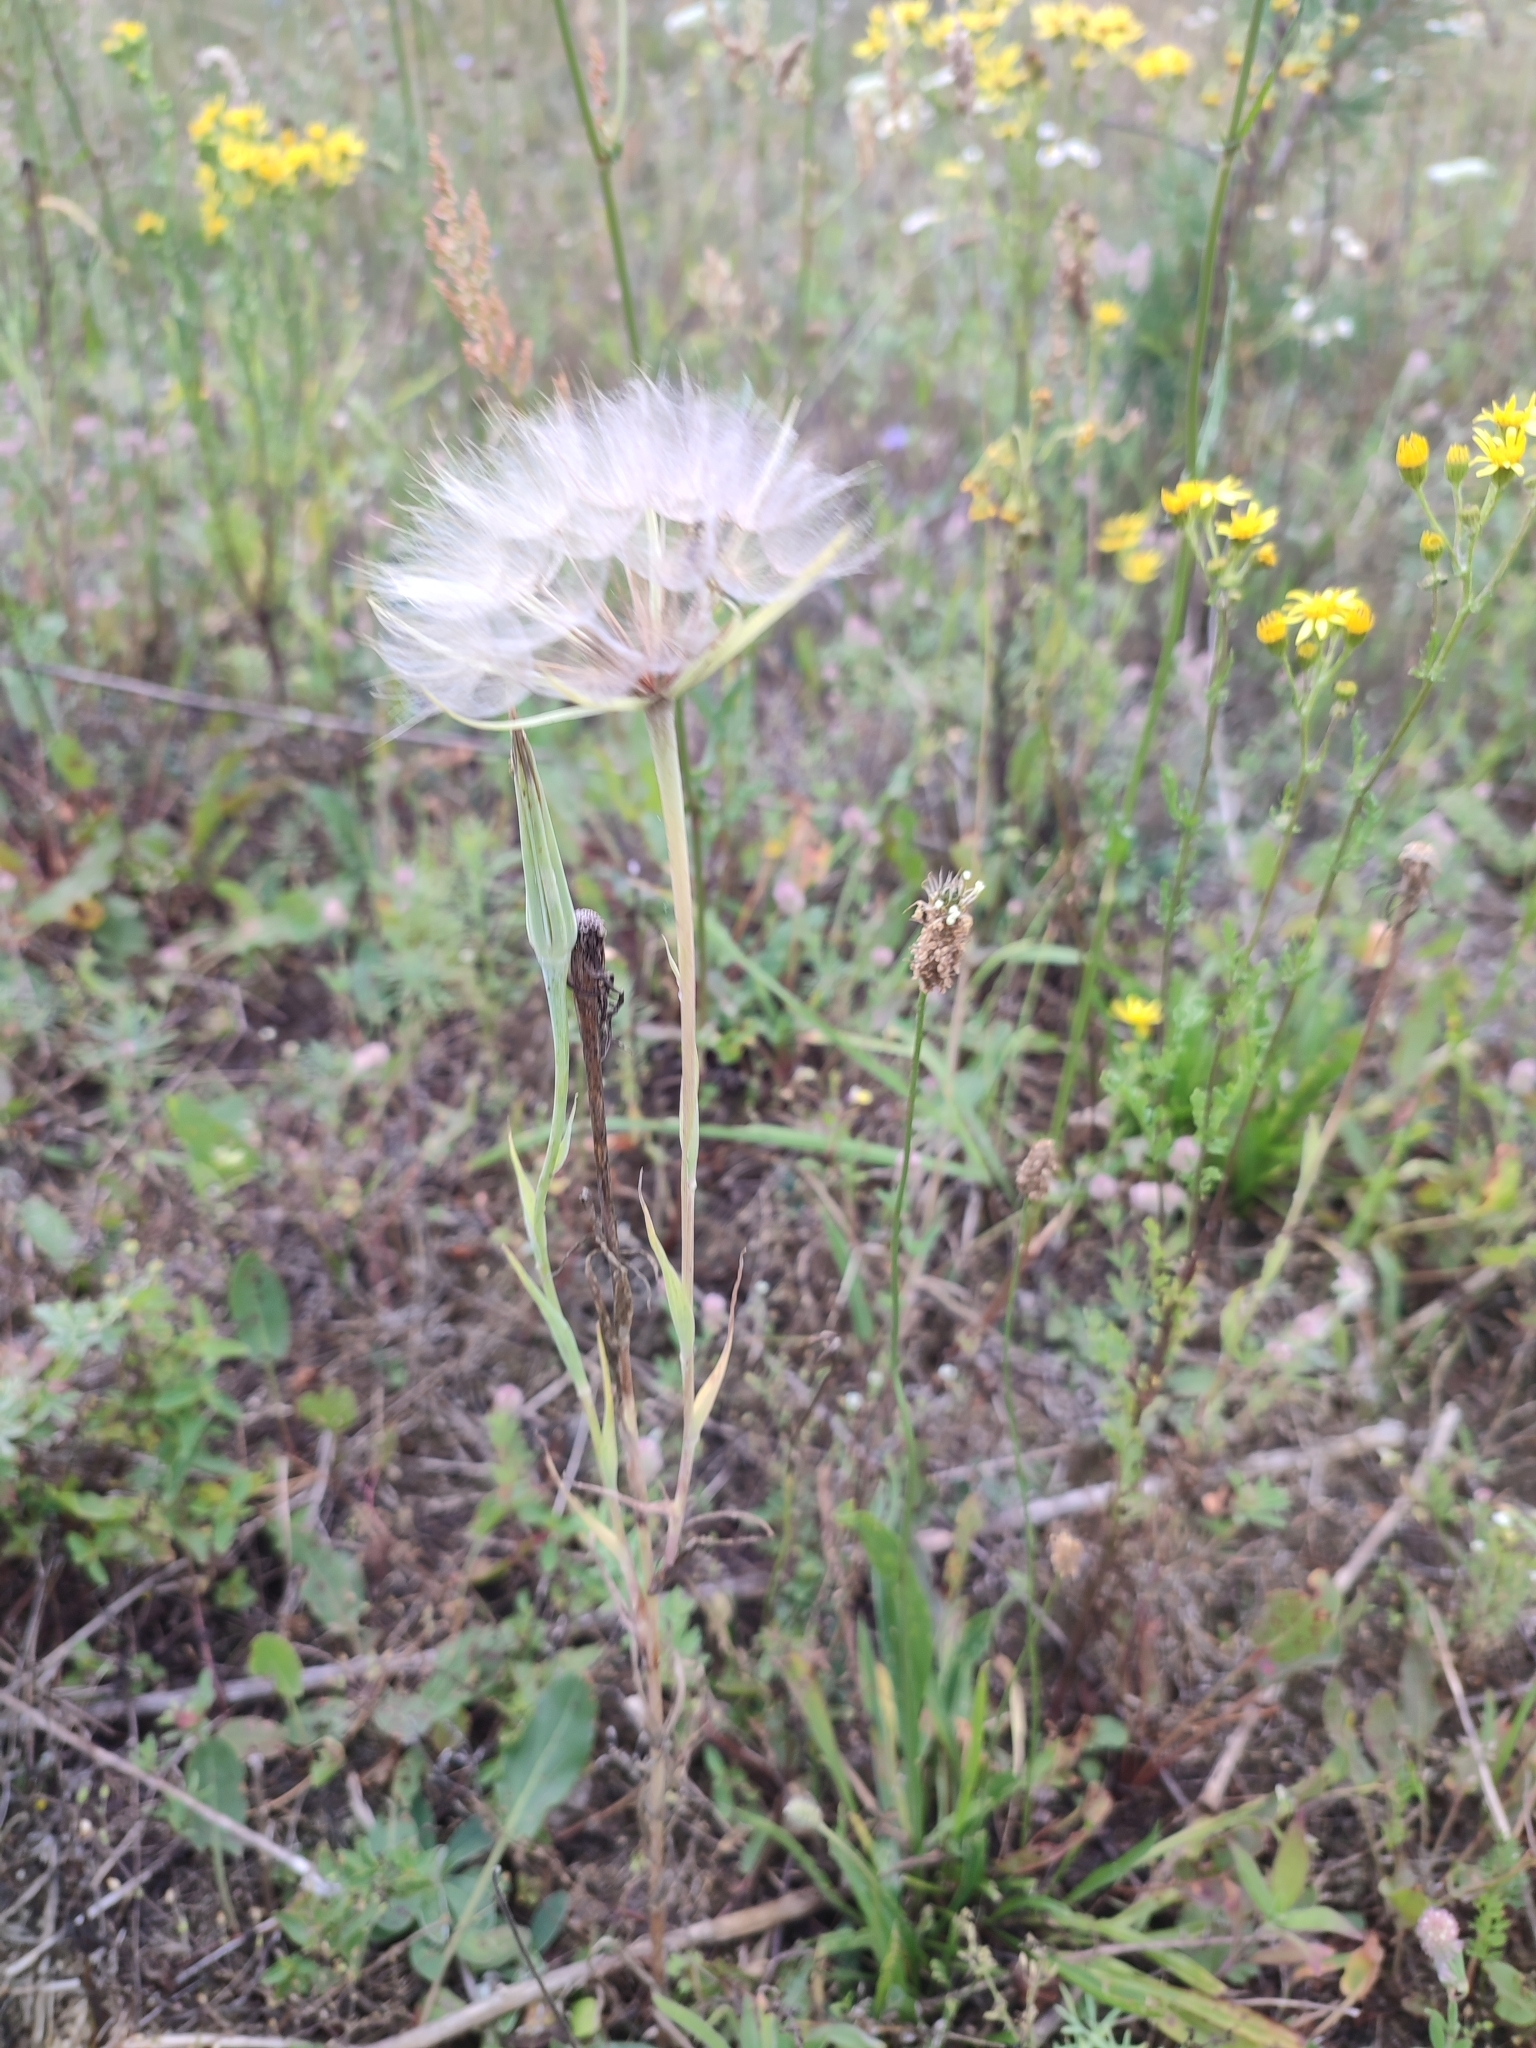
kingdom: Plantae
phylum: Tracheophyta
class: Magnoliopsida
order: Asterales
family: Asteraceae
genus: Tragopogon
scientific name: Tragopogon dubius
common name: Yellow salsify
